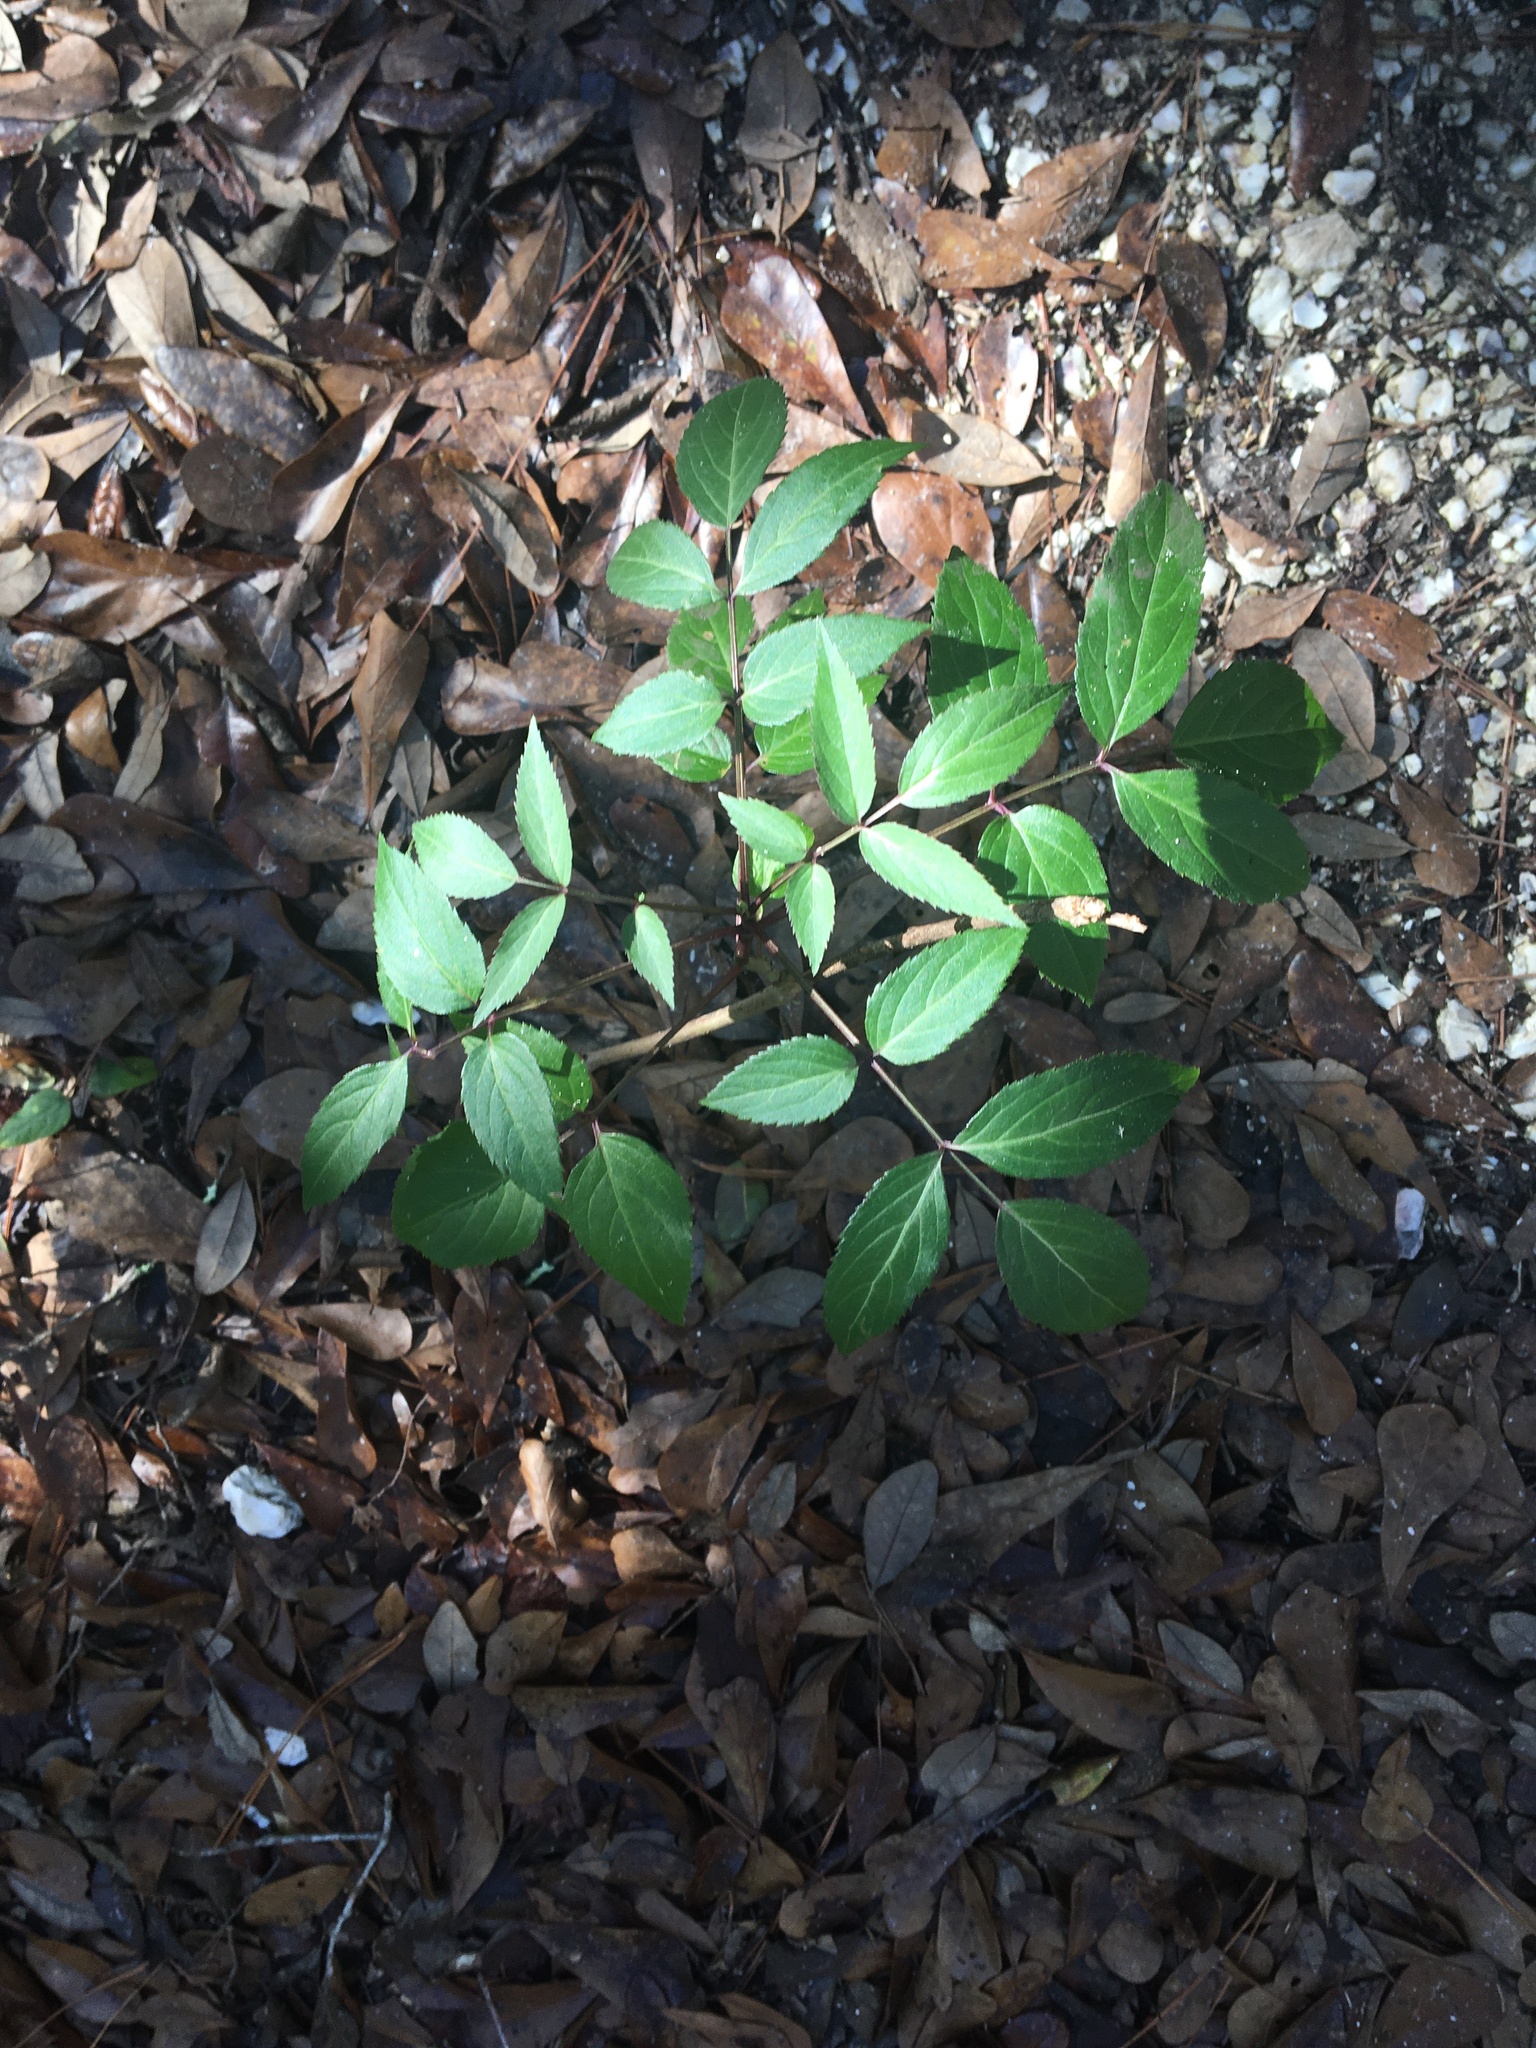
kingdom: Plantae
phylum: Tracheophyta
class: Magnoliopsida
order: Dipsacales
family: Viburnaceae
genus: Sambucus
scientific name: Sambucus canadensis
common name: American elder
